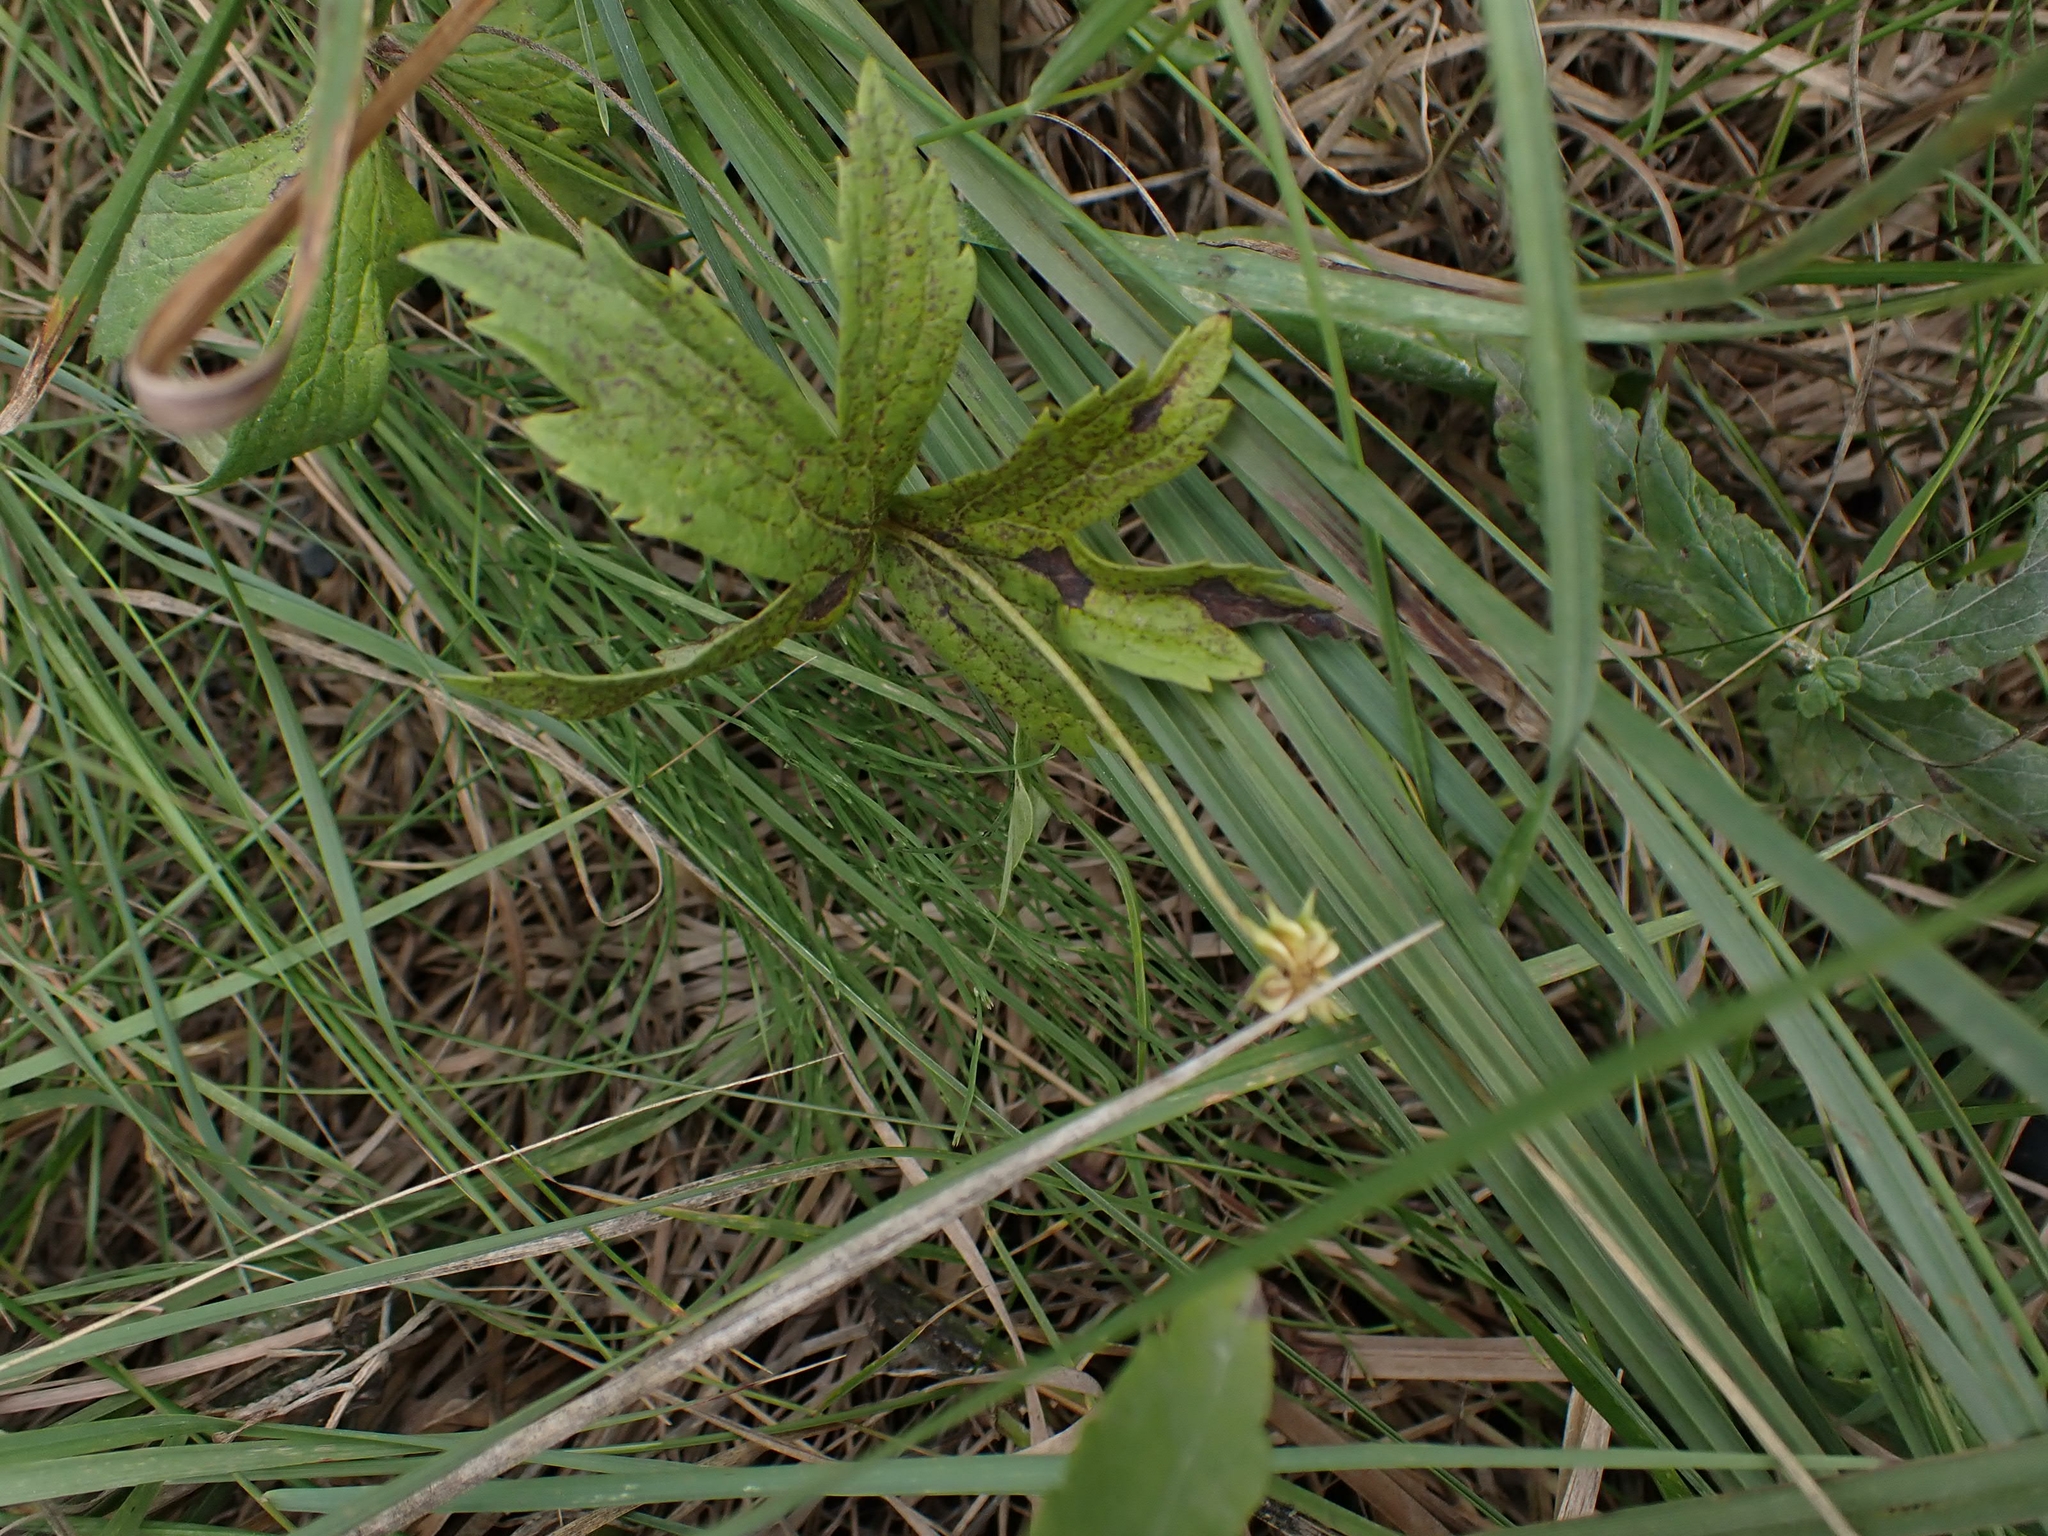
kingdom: Plantae
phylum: Tracheophyta
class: Magnoliopsida
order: Ranunculales
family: Ranunculaceae
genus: Anemonastrum
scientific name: Anemonastrum canadense
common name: Canada anemone
